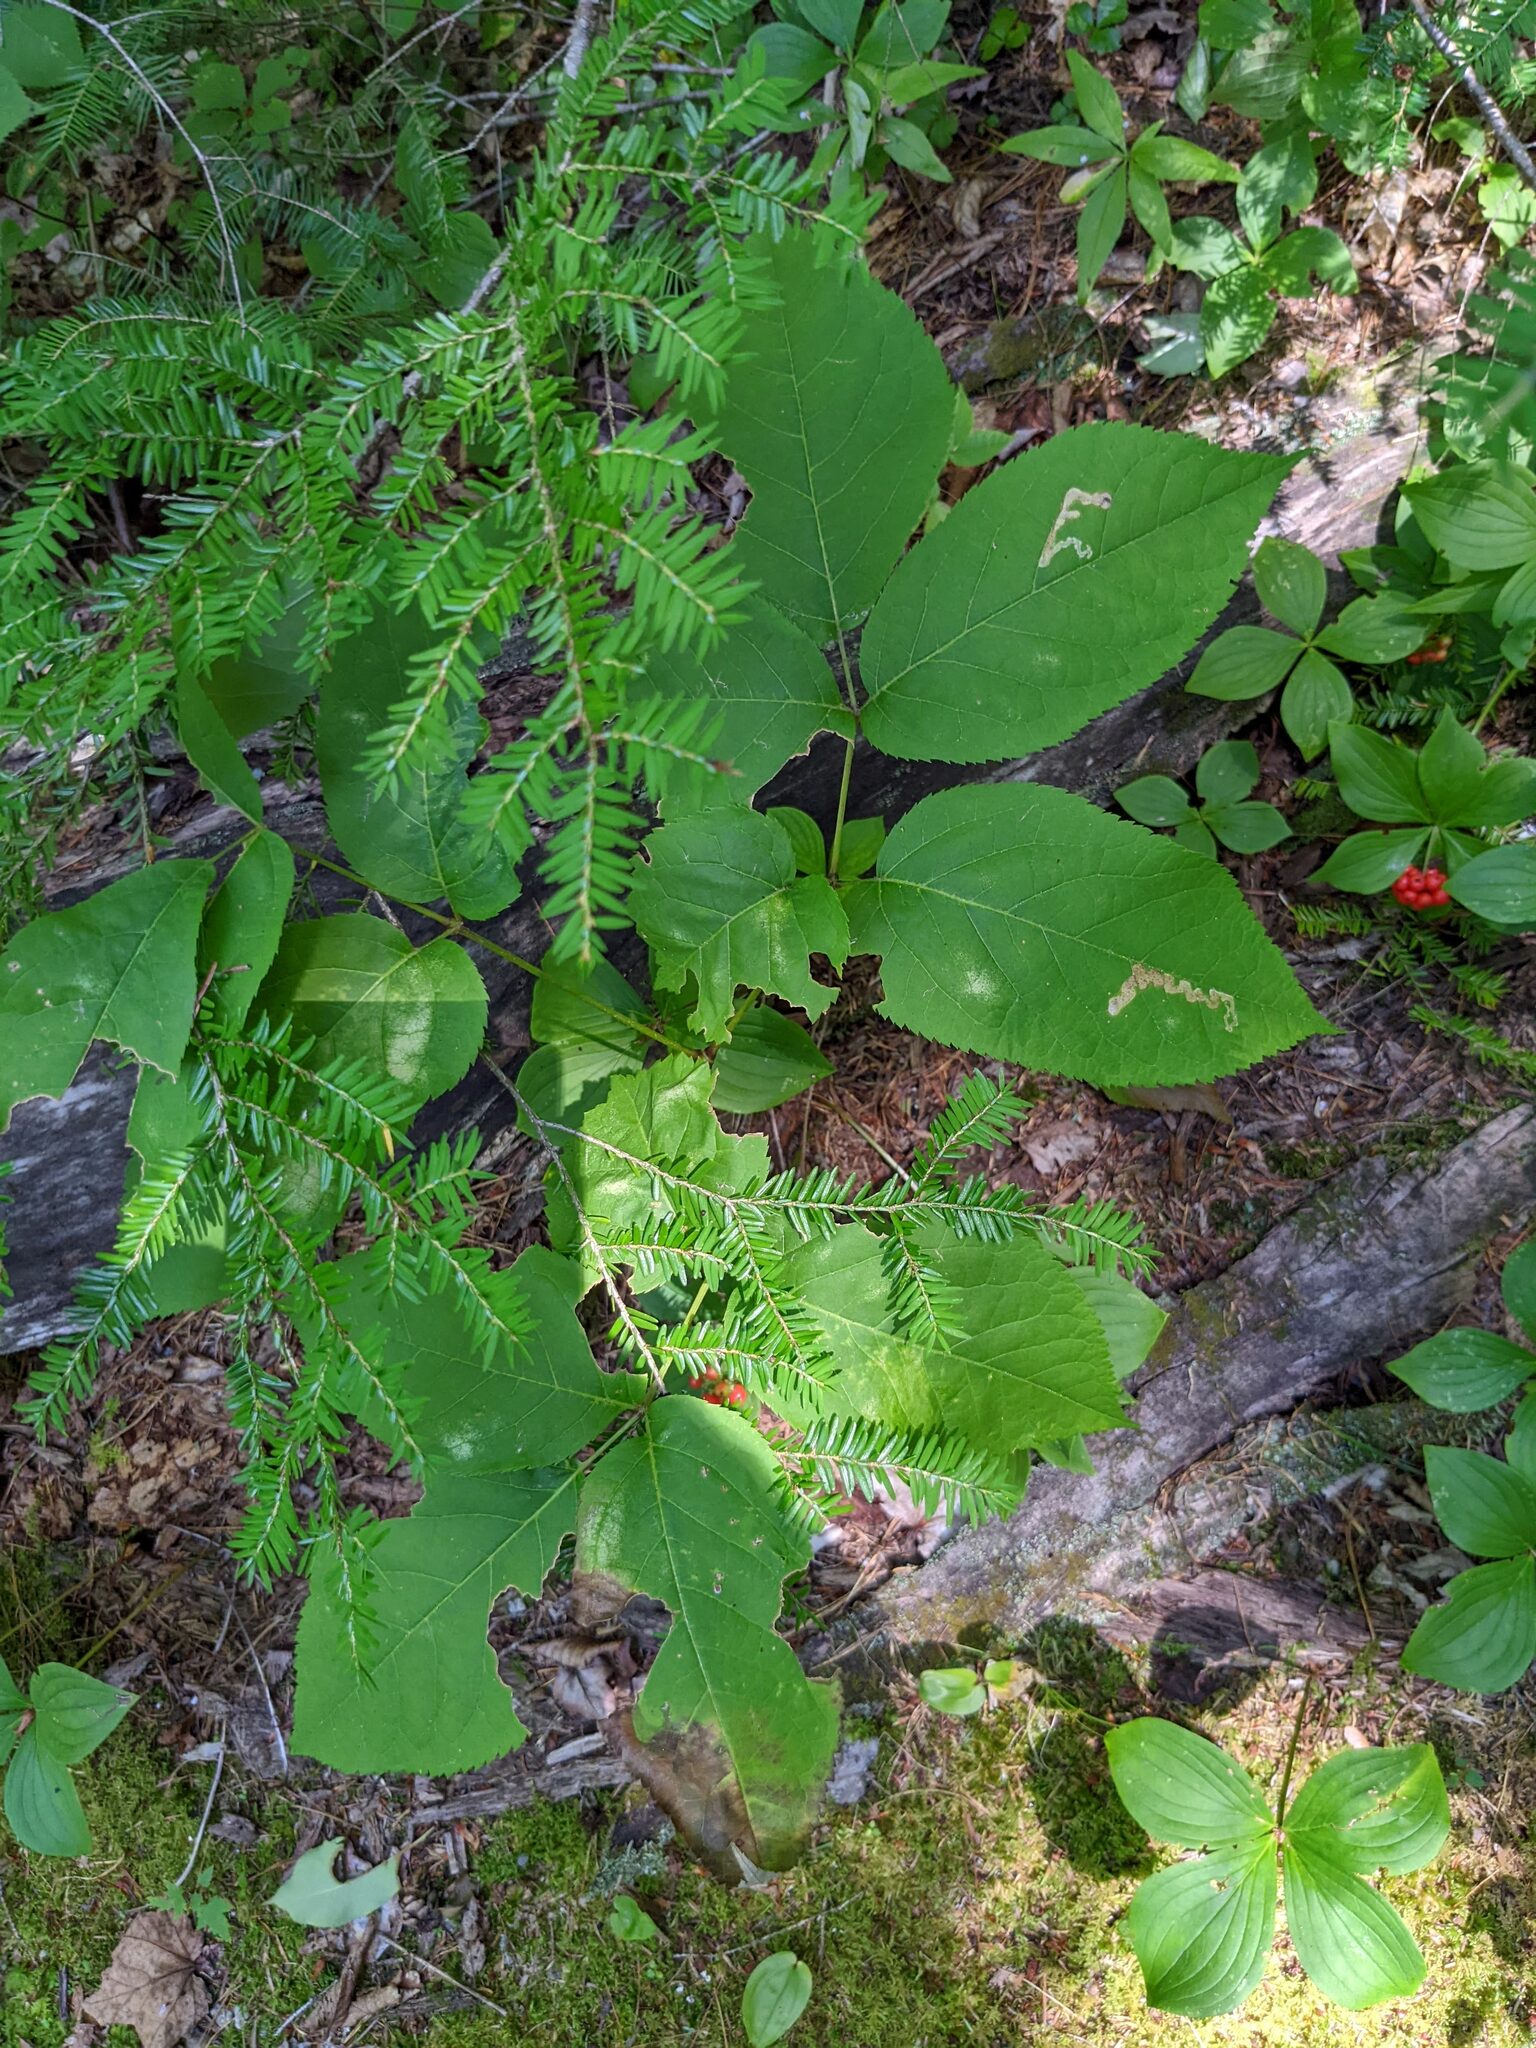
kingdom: Plantae
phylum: Tracheophyta
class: Magnoliopsida
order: Apiales
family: Araliaceae
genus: Aralia
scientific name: Aralia nudicaulis
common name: Wild sarsaparilla
